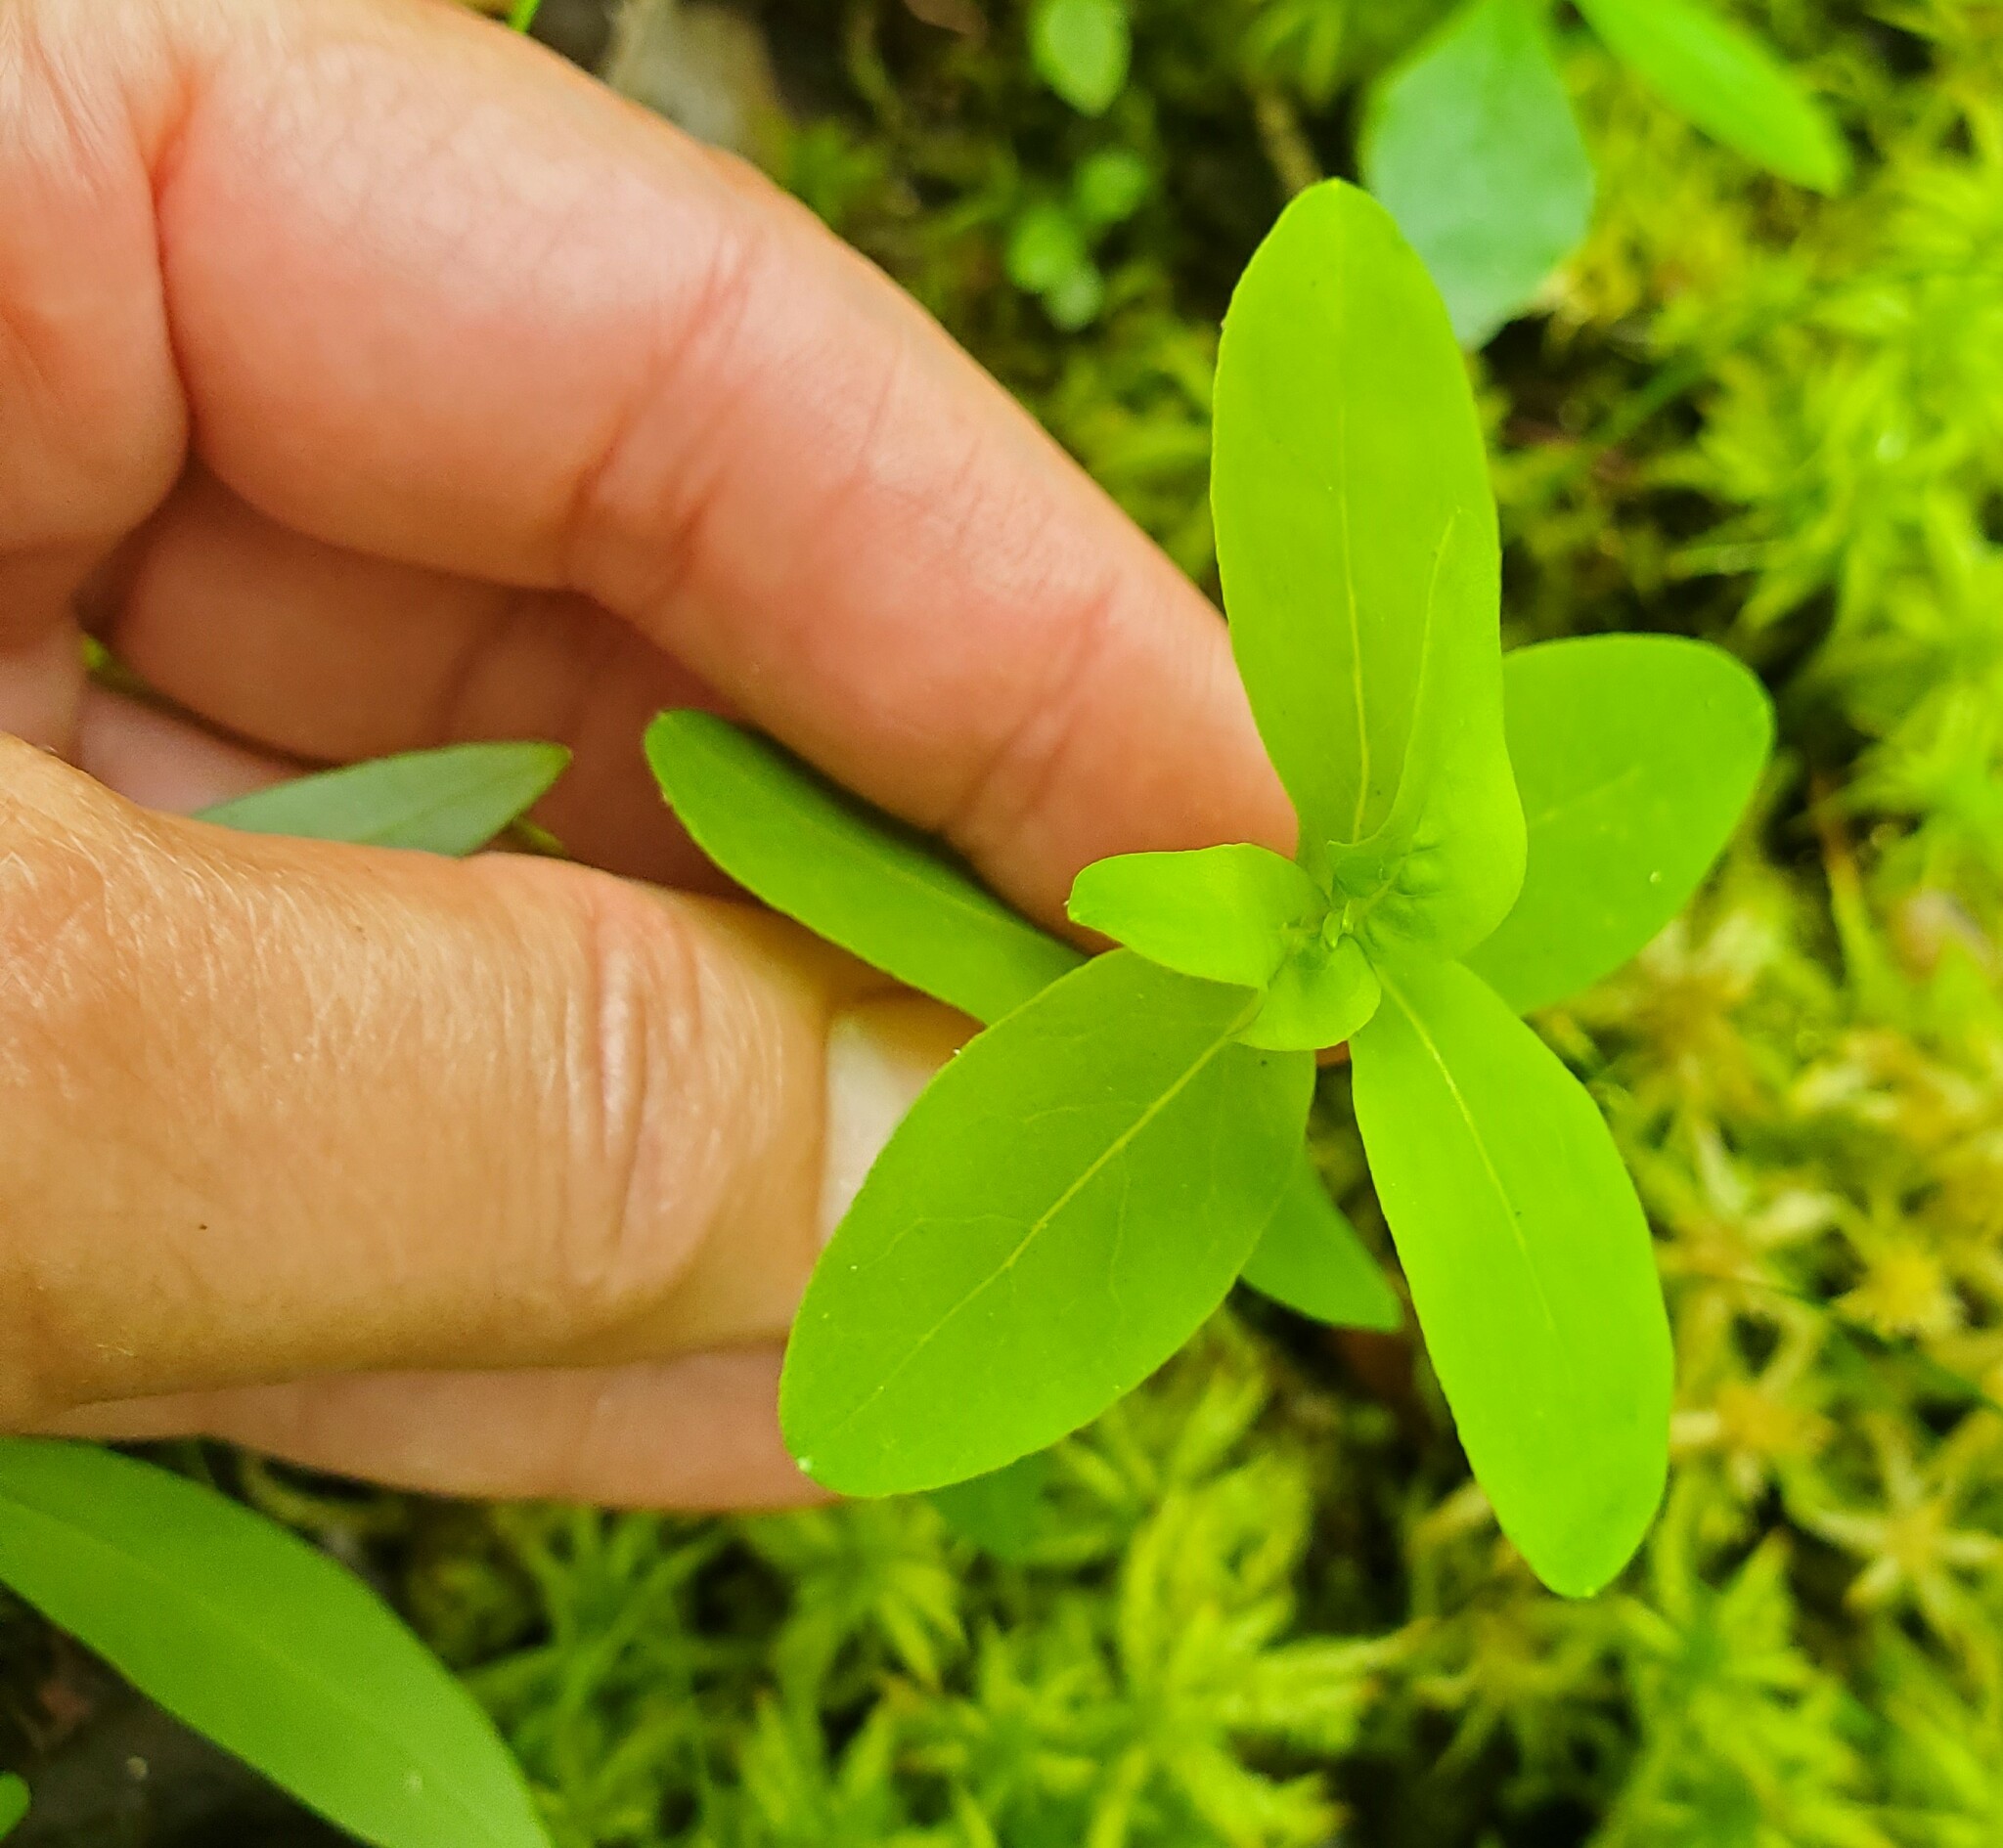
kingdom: Plantae
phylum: Tracheophyta
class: Magnoliopsida
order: Malpighiales
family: Hypericaceae
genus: Triadenum
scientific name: Triadenum virginicum
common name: Marsh st. john's-wort
